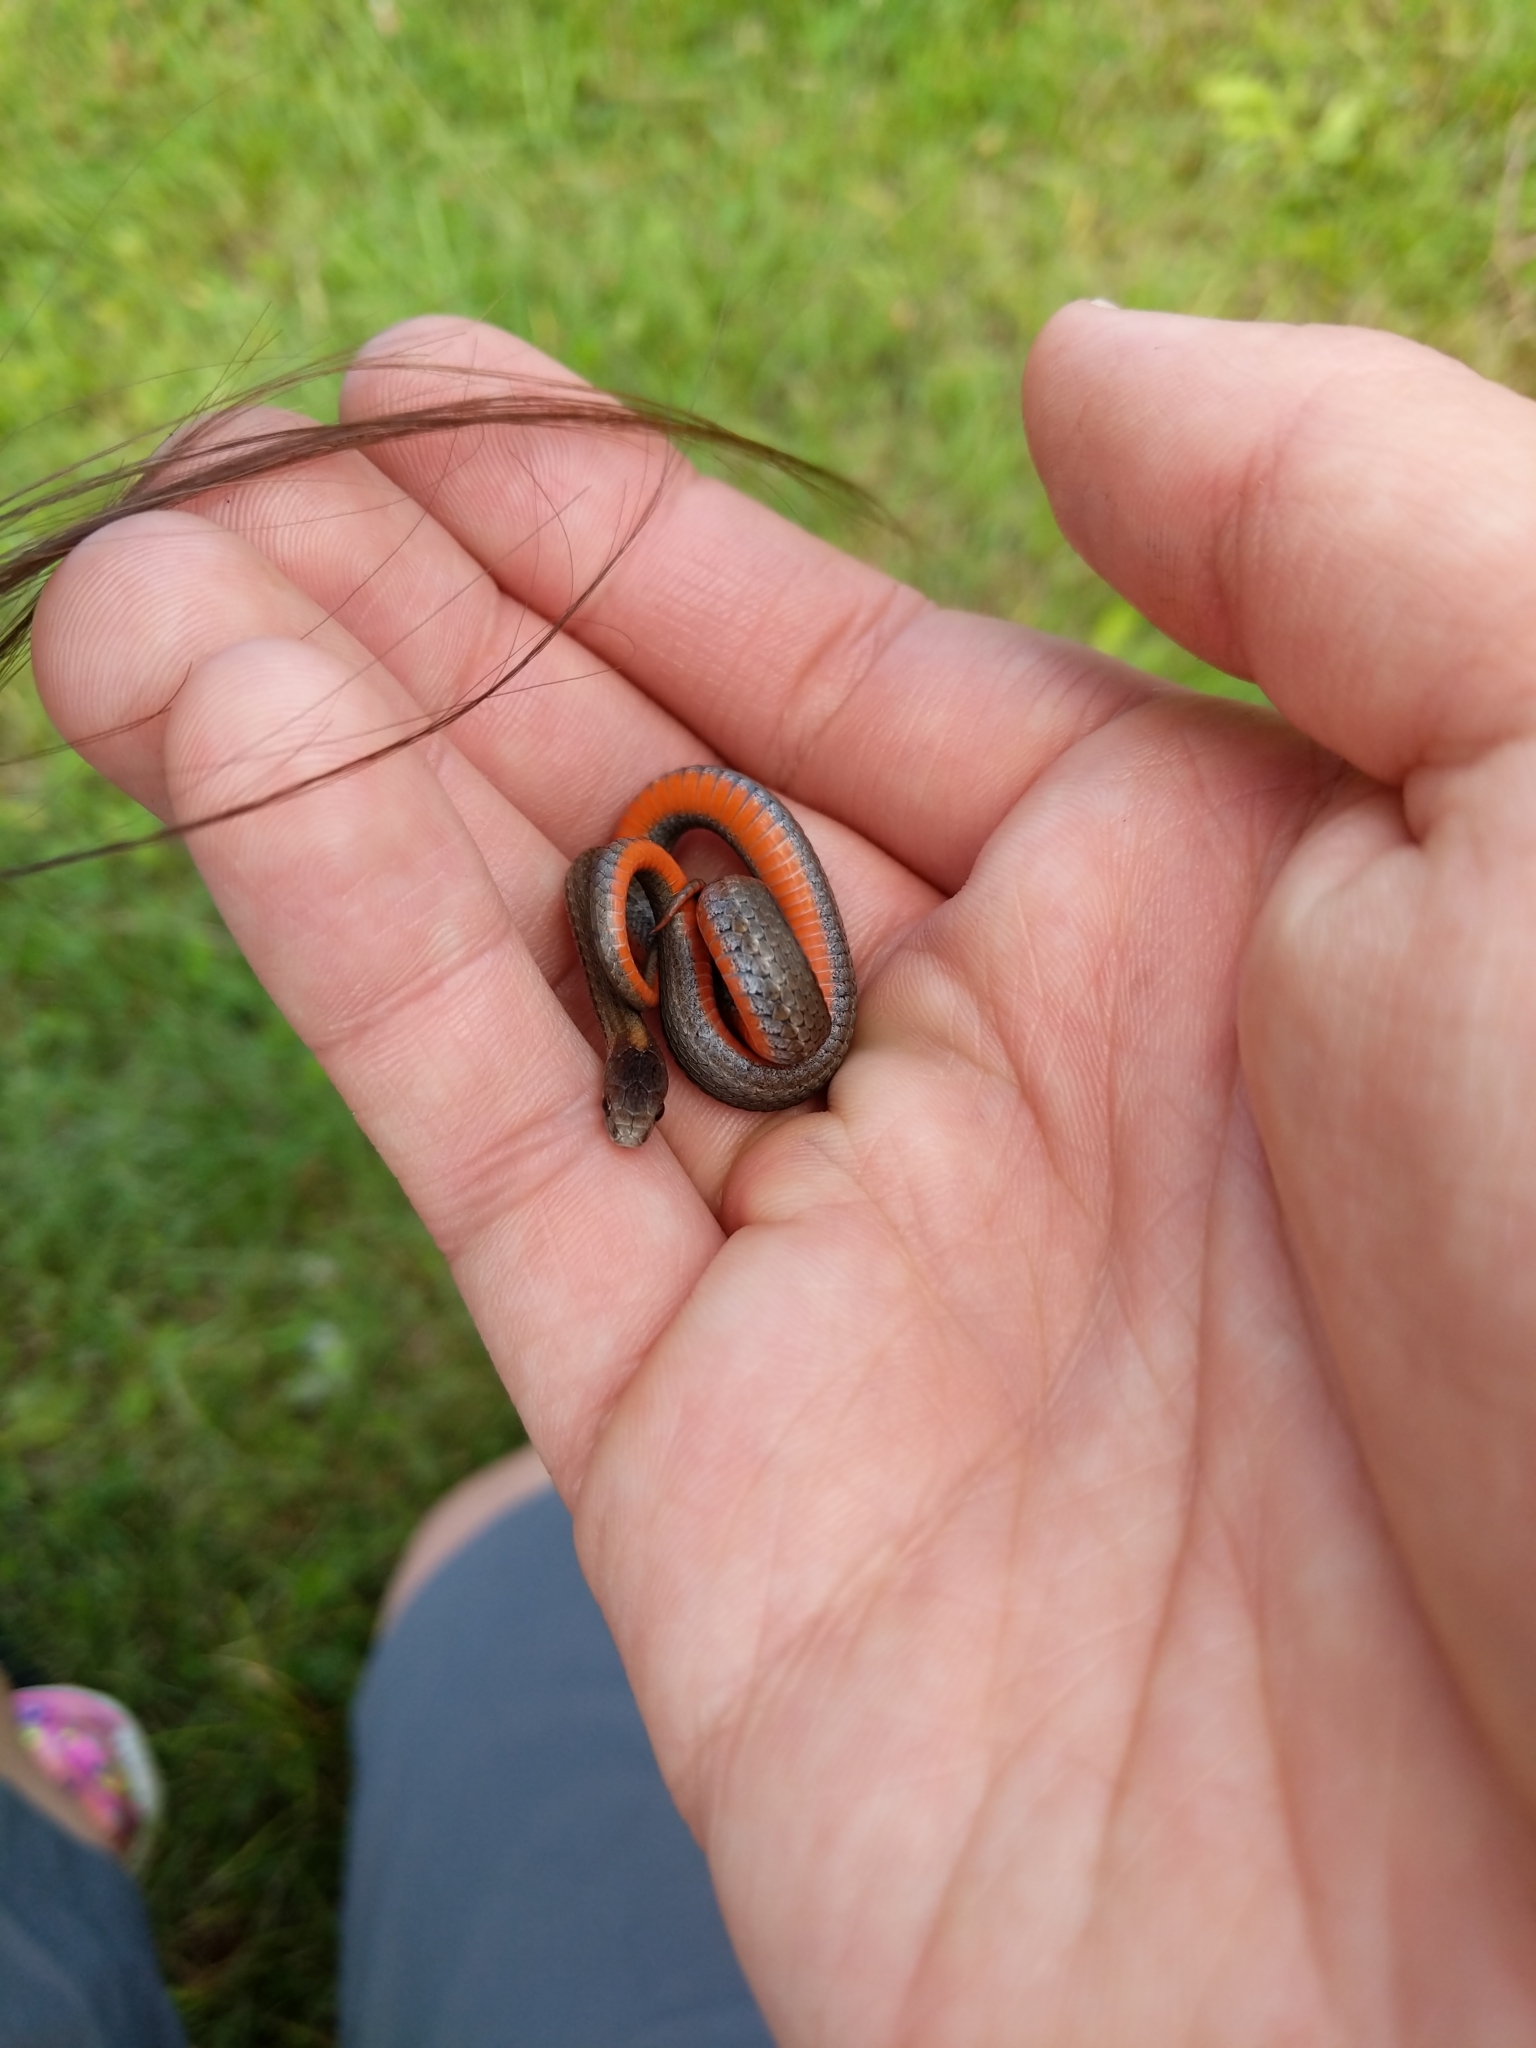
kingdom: Animalia
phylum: Chordata
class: Squamata
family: Colubridae
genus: Storeria
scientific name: Storeria occipitomaculata
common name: Redbelly snake
